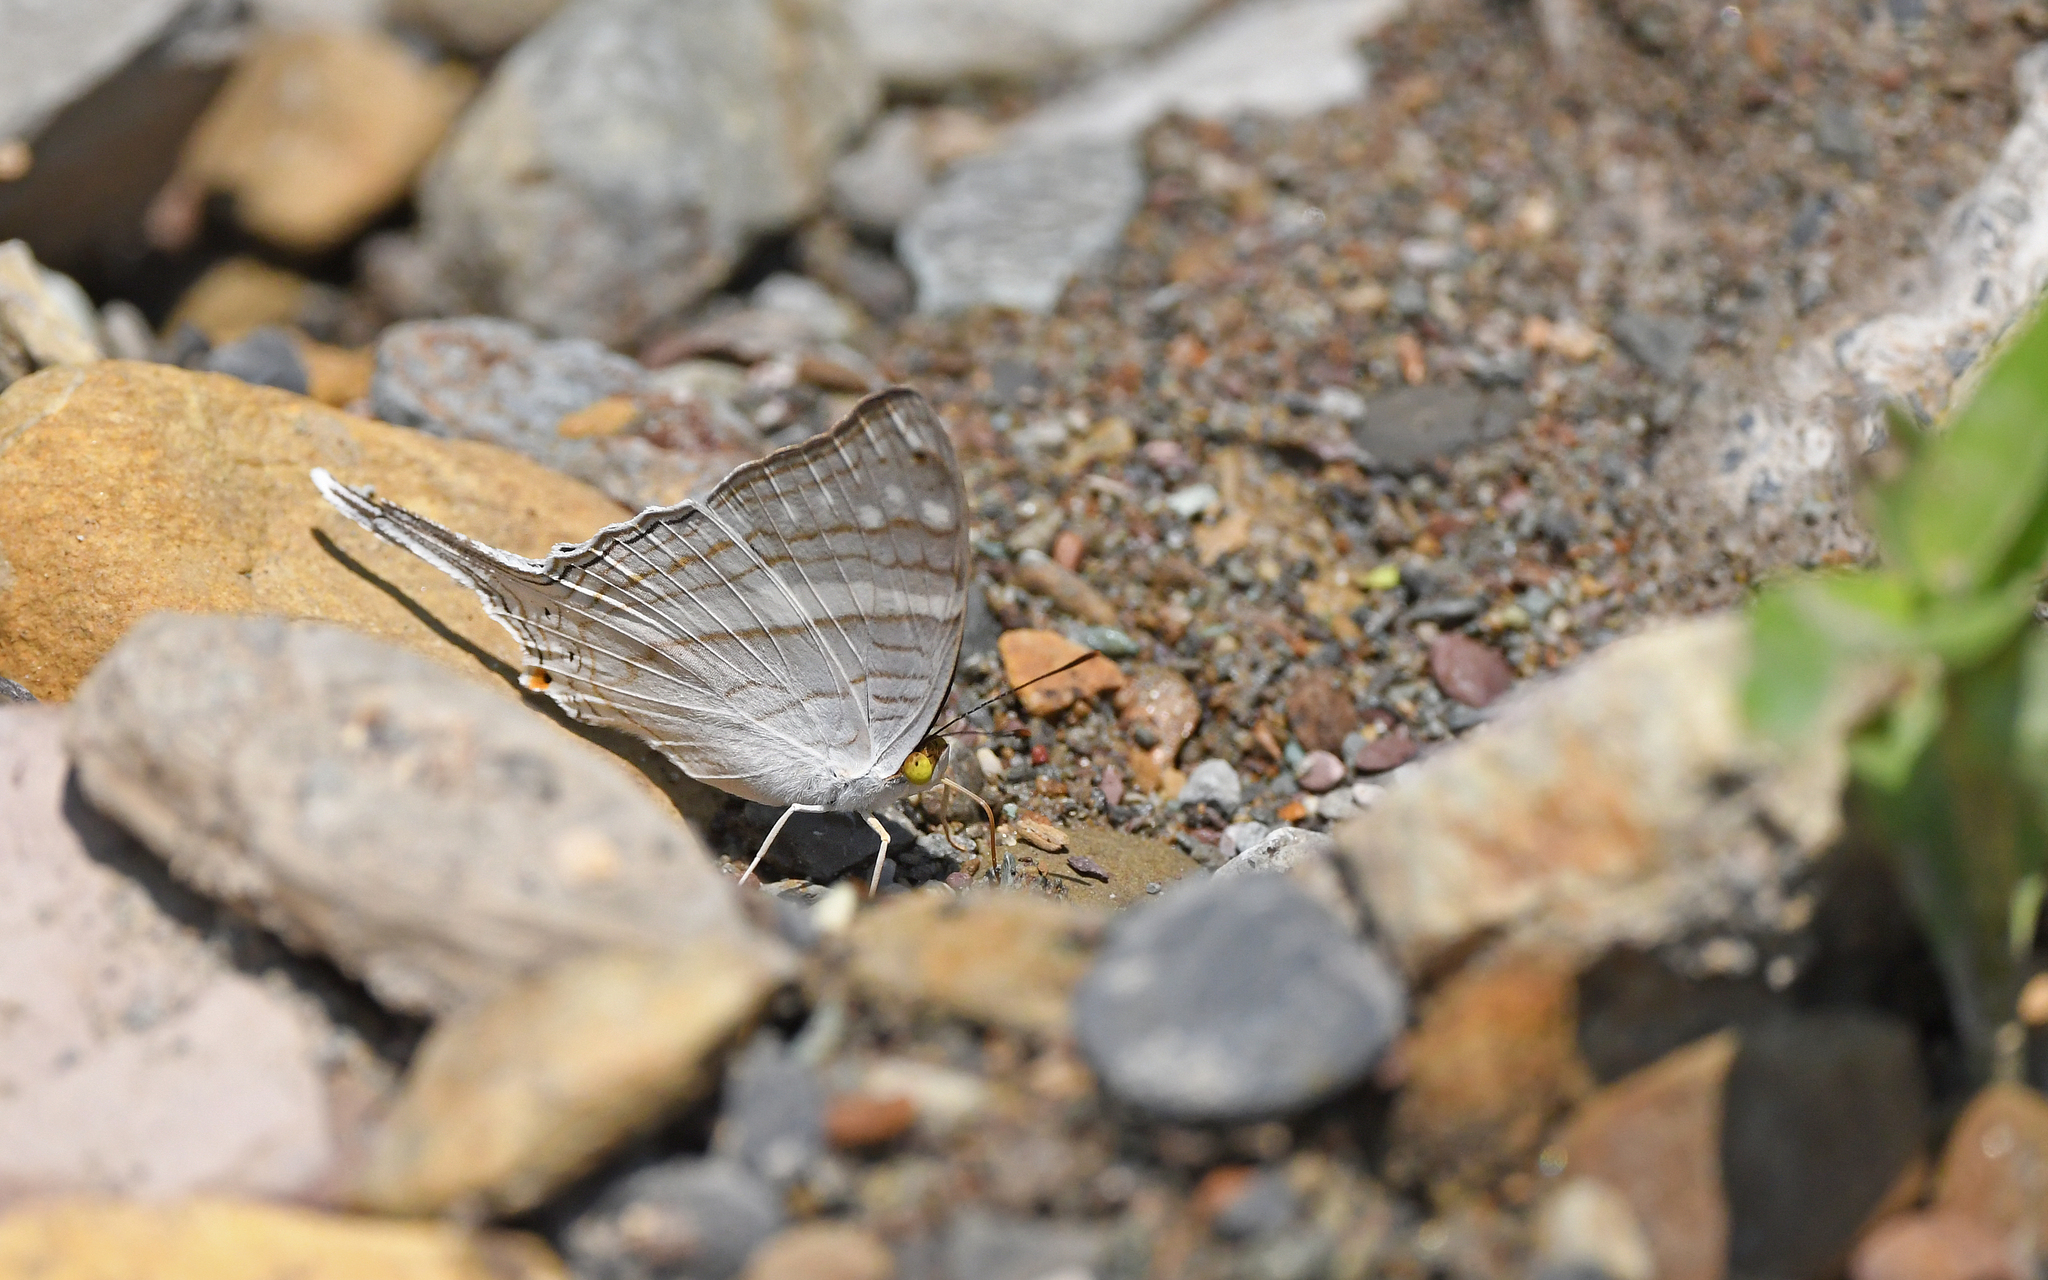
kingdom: Animalia
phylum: Arthropoda
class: Insecta
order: Lepidoptera
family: Nymphalidae
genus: Marpesia
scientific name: Marpesia crethon
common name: Crethon daggerwing
